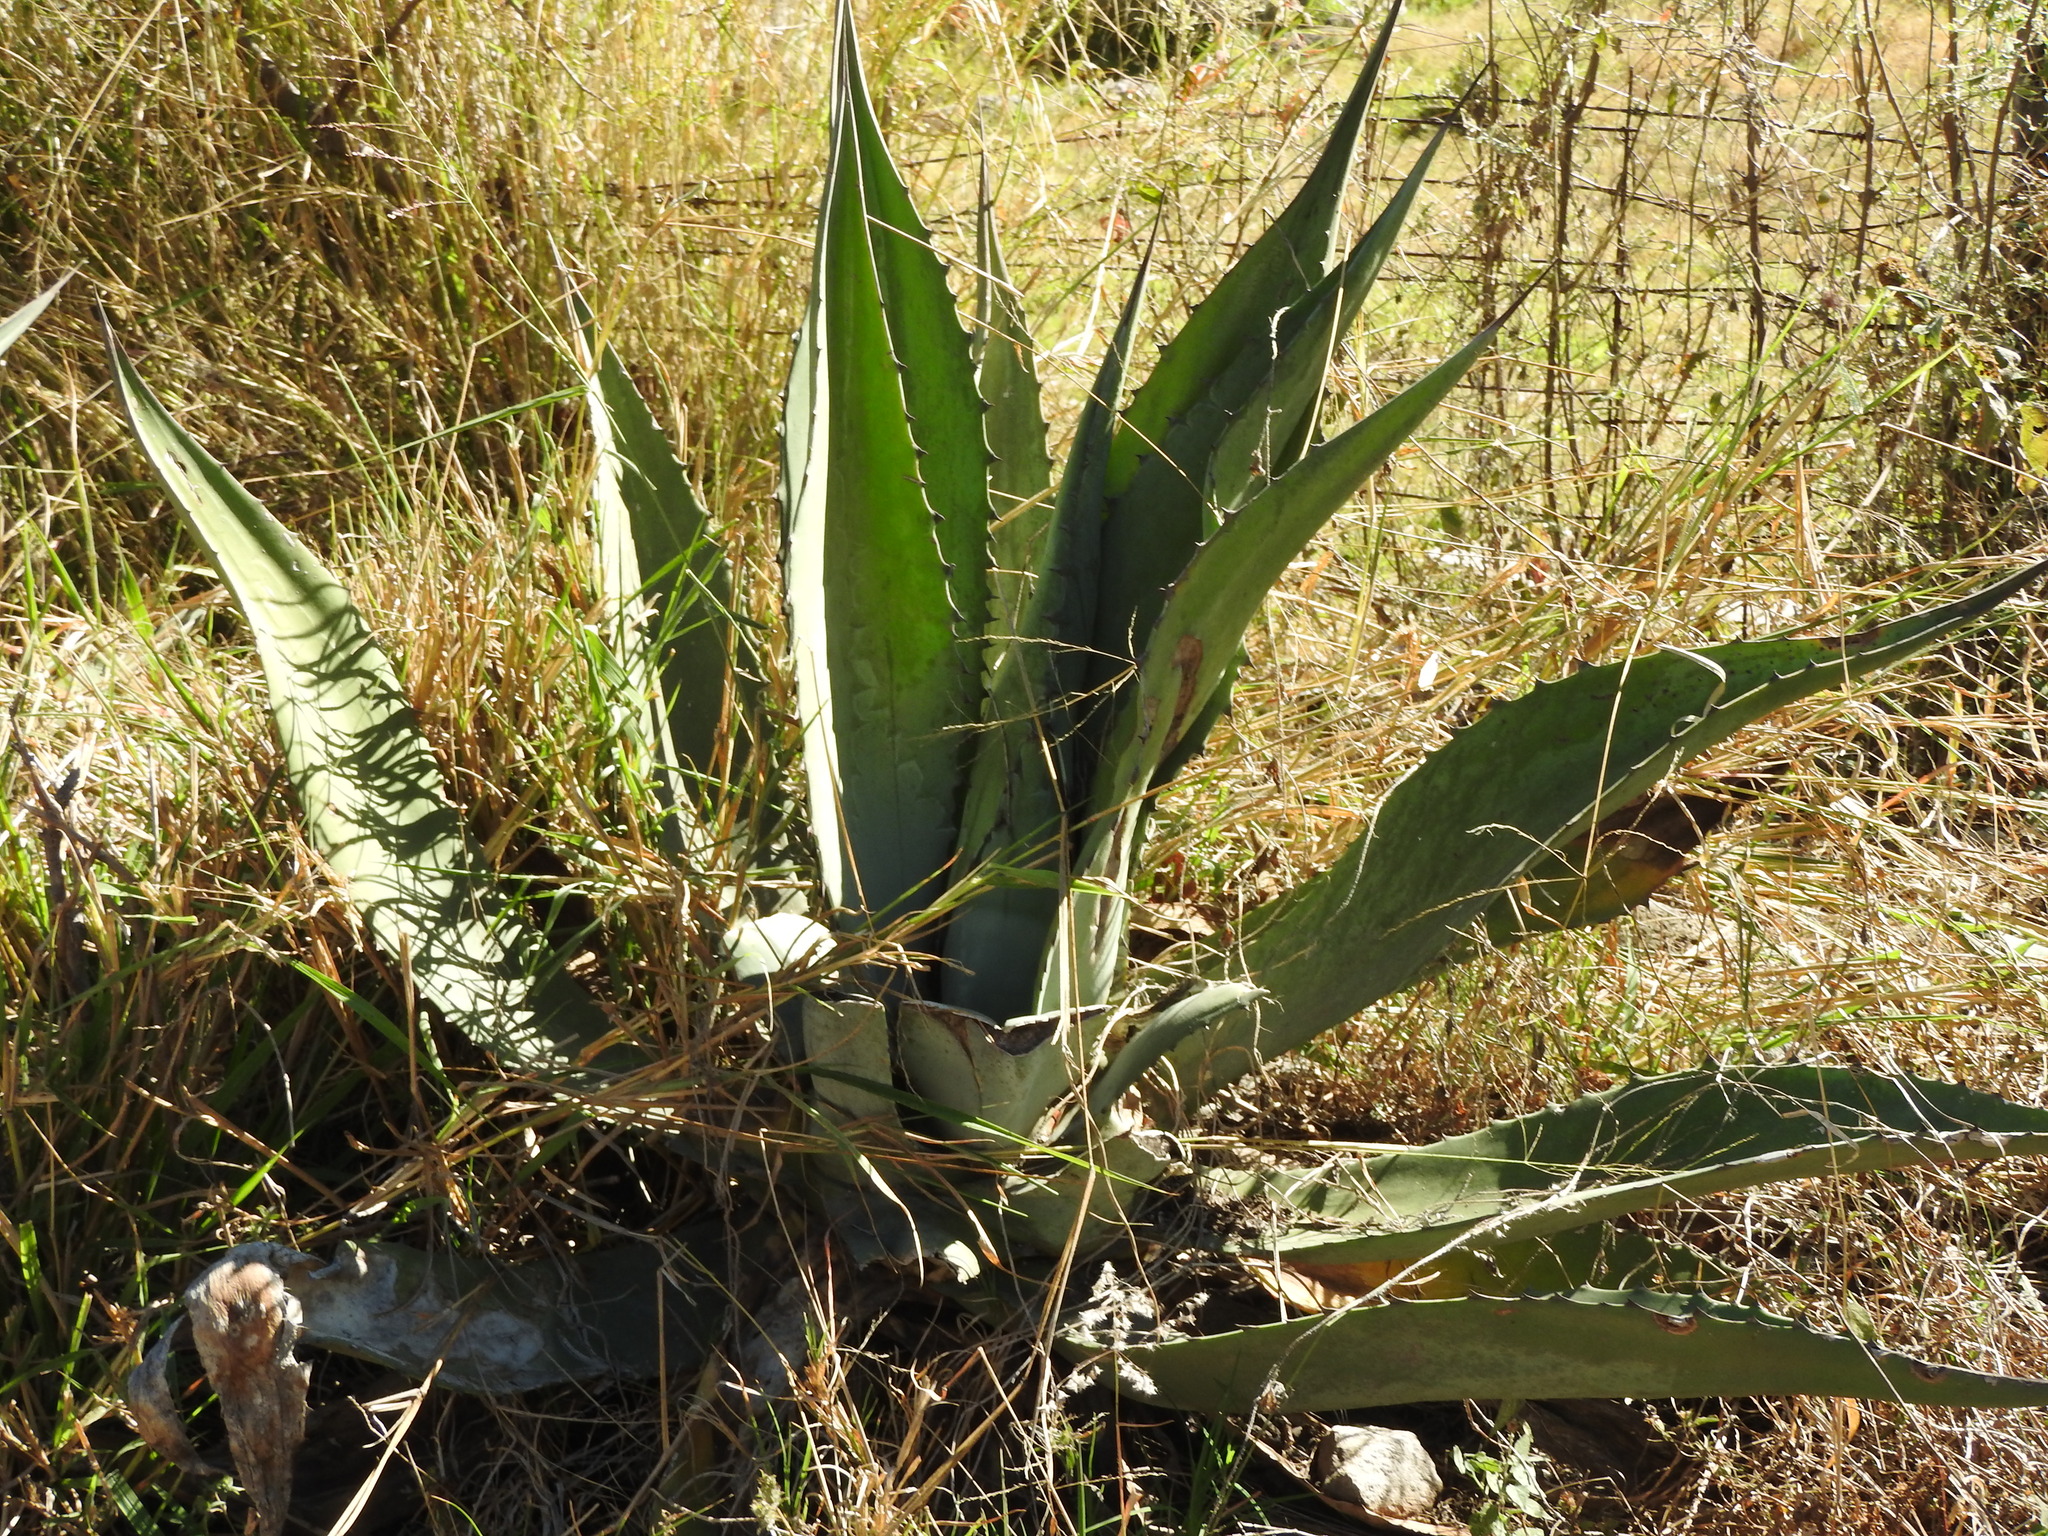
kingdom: Plantae
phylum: Tracheophyta
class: Liliopsida
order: Asparagales
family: Asparagaceae
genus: Agave
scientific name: Agave salmiana
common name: Pulque agave
